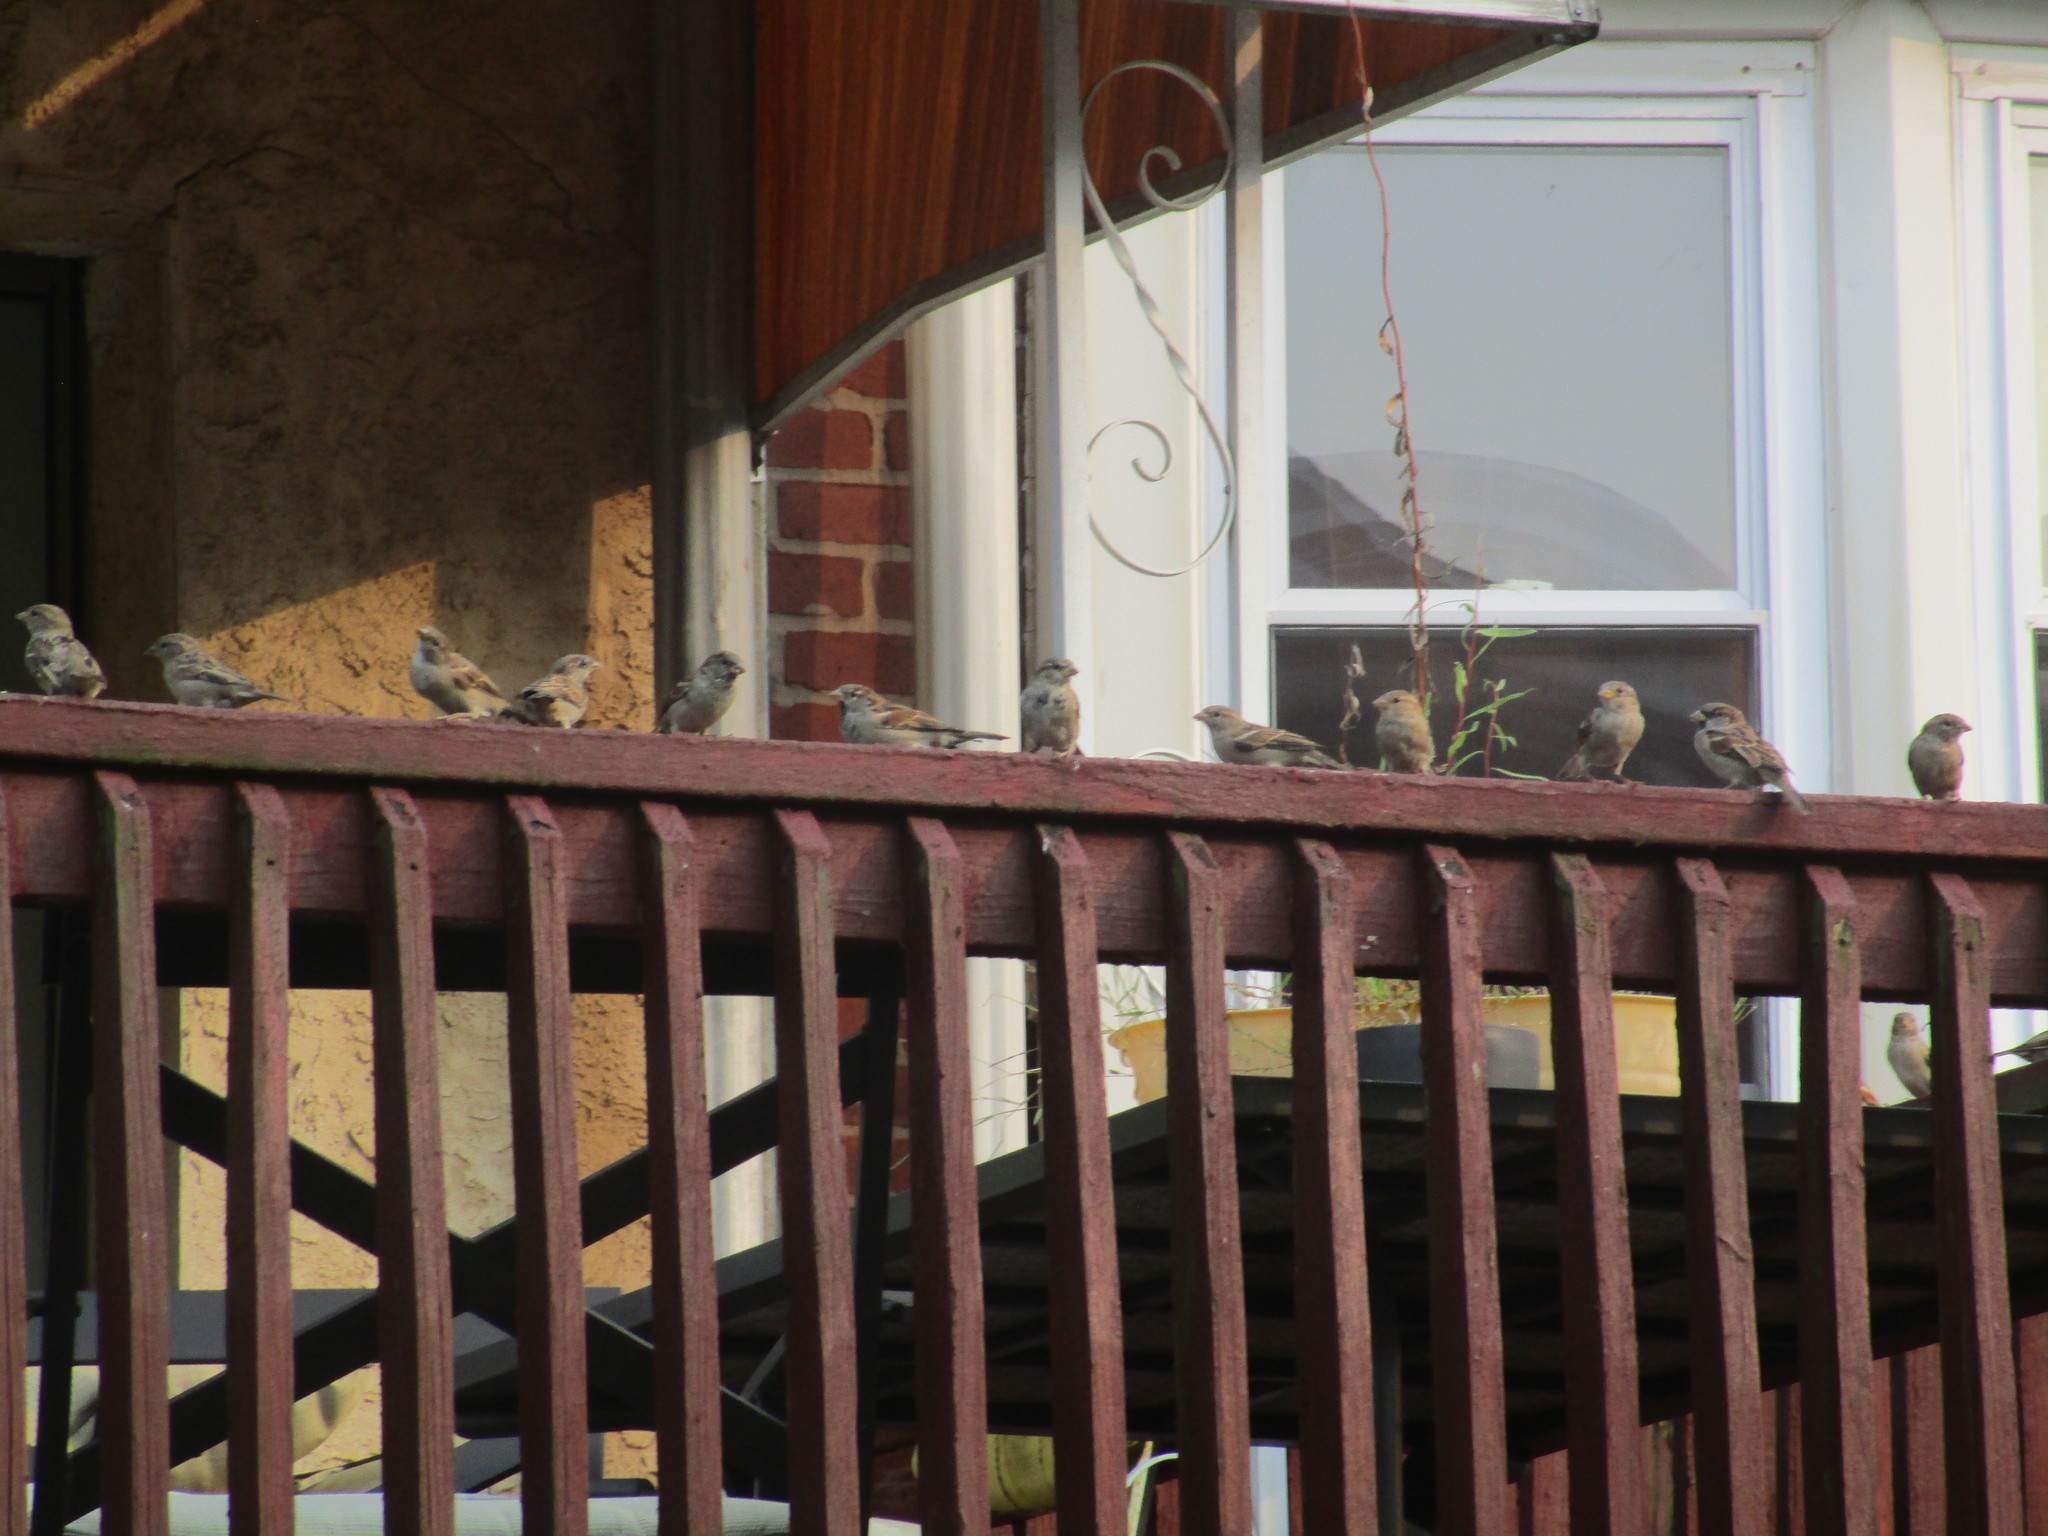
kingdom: Animalia
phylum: Chordata
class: Aves
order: Passeriformes
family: Passeridae
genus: Passer
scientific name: Passer domesticus
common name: House sparrow
